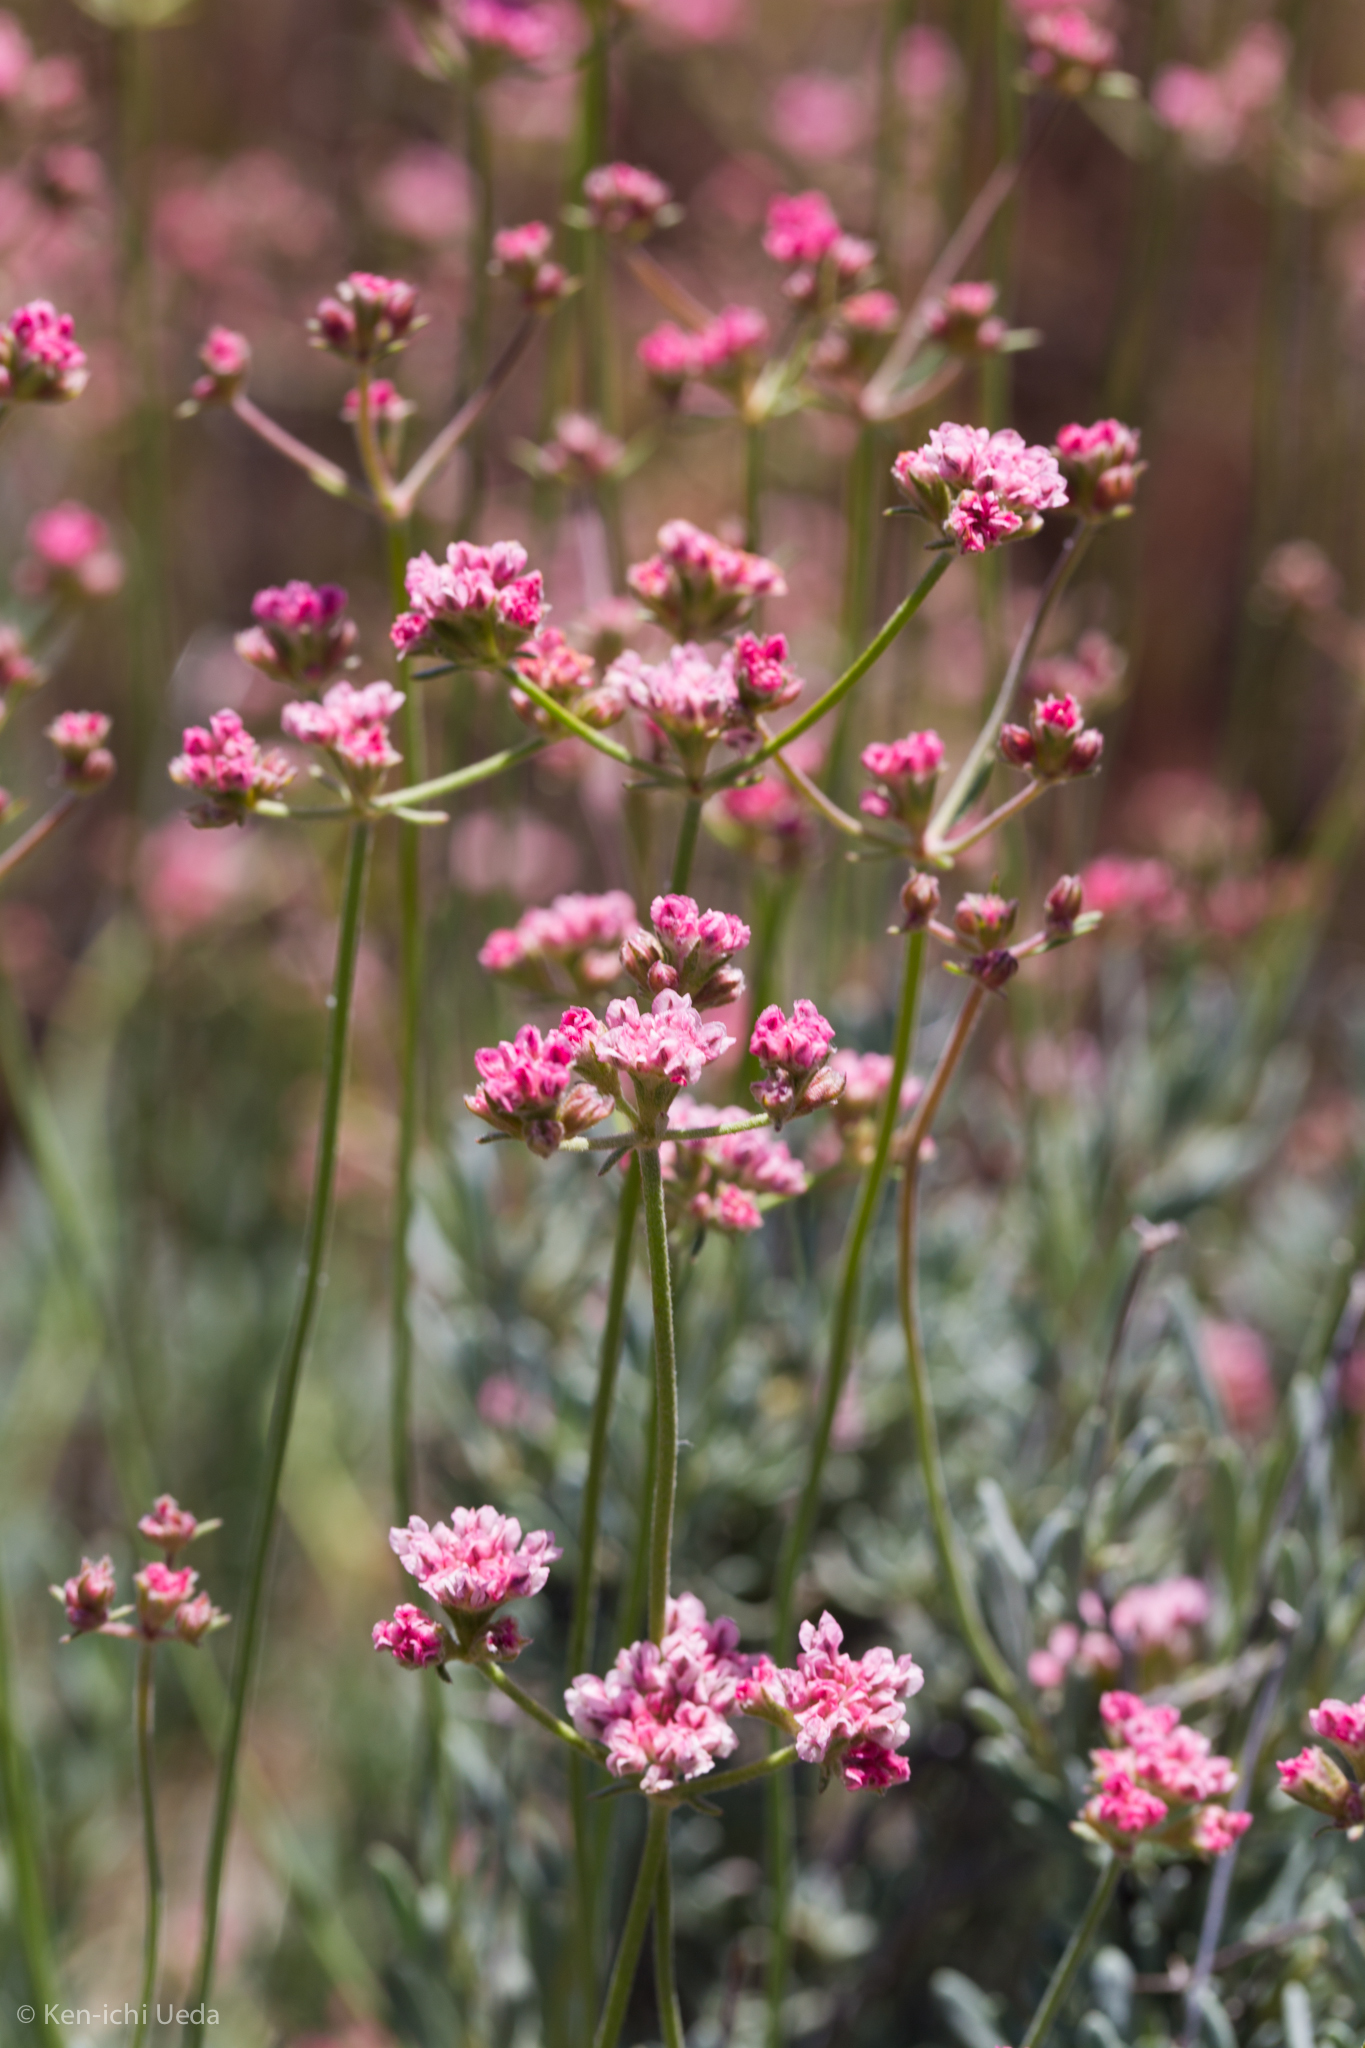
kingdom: Plantae
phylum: Tracheophyta
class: Magnoliopsida
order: Caryophyllales
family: Polygonaceae
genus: Eriogonum
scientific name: Eriogonum fasciculatum
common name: California wild buckwheat
